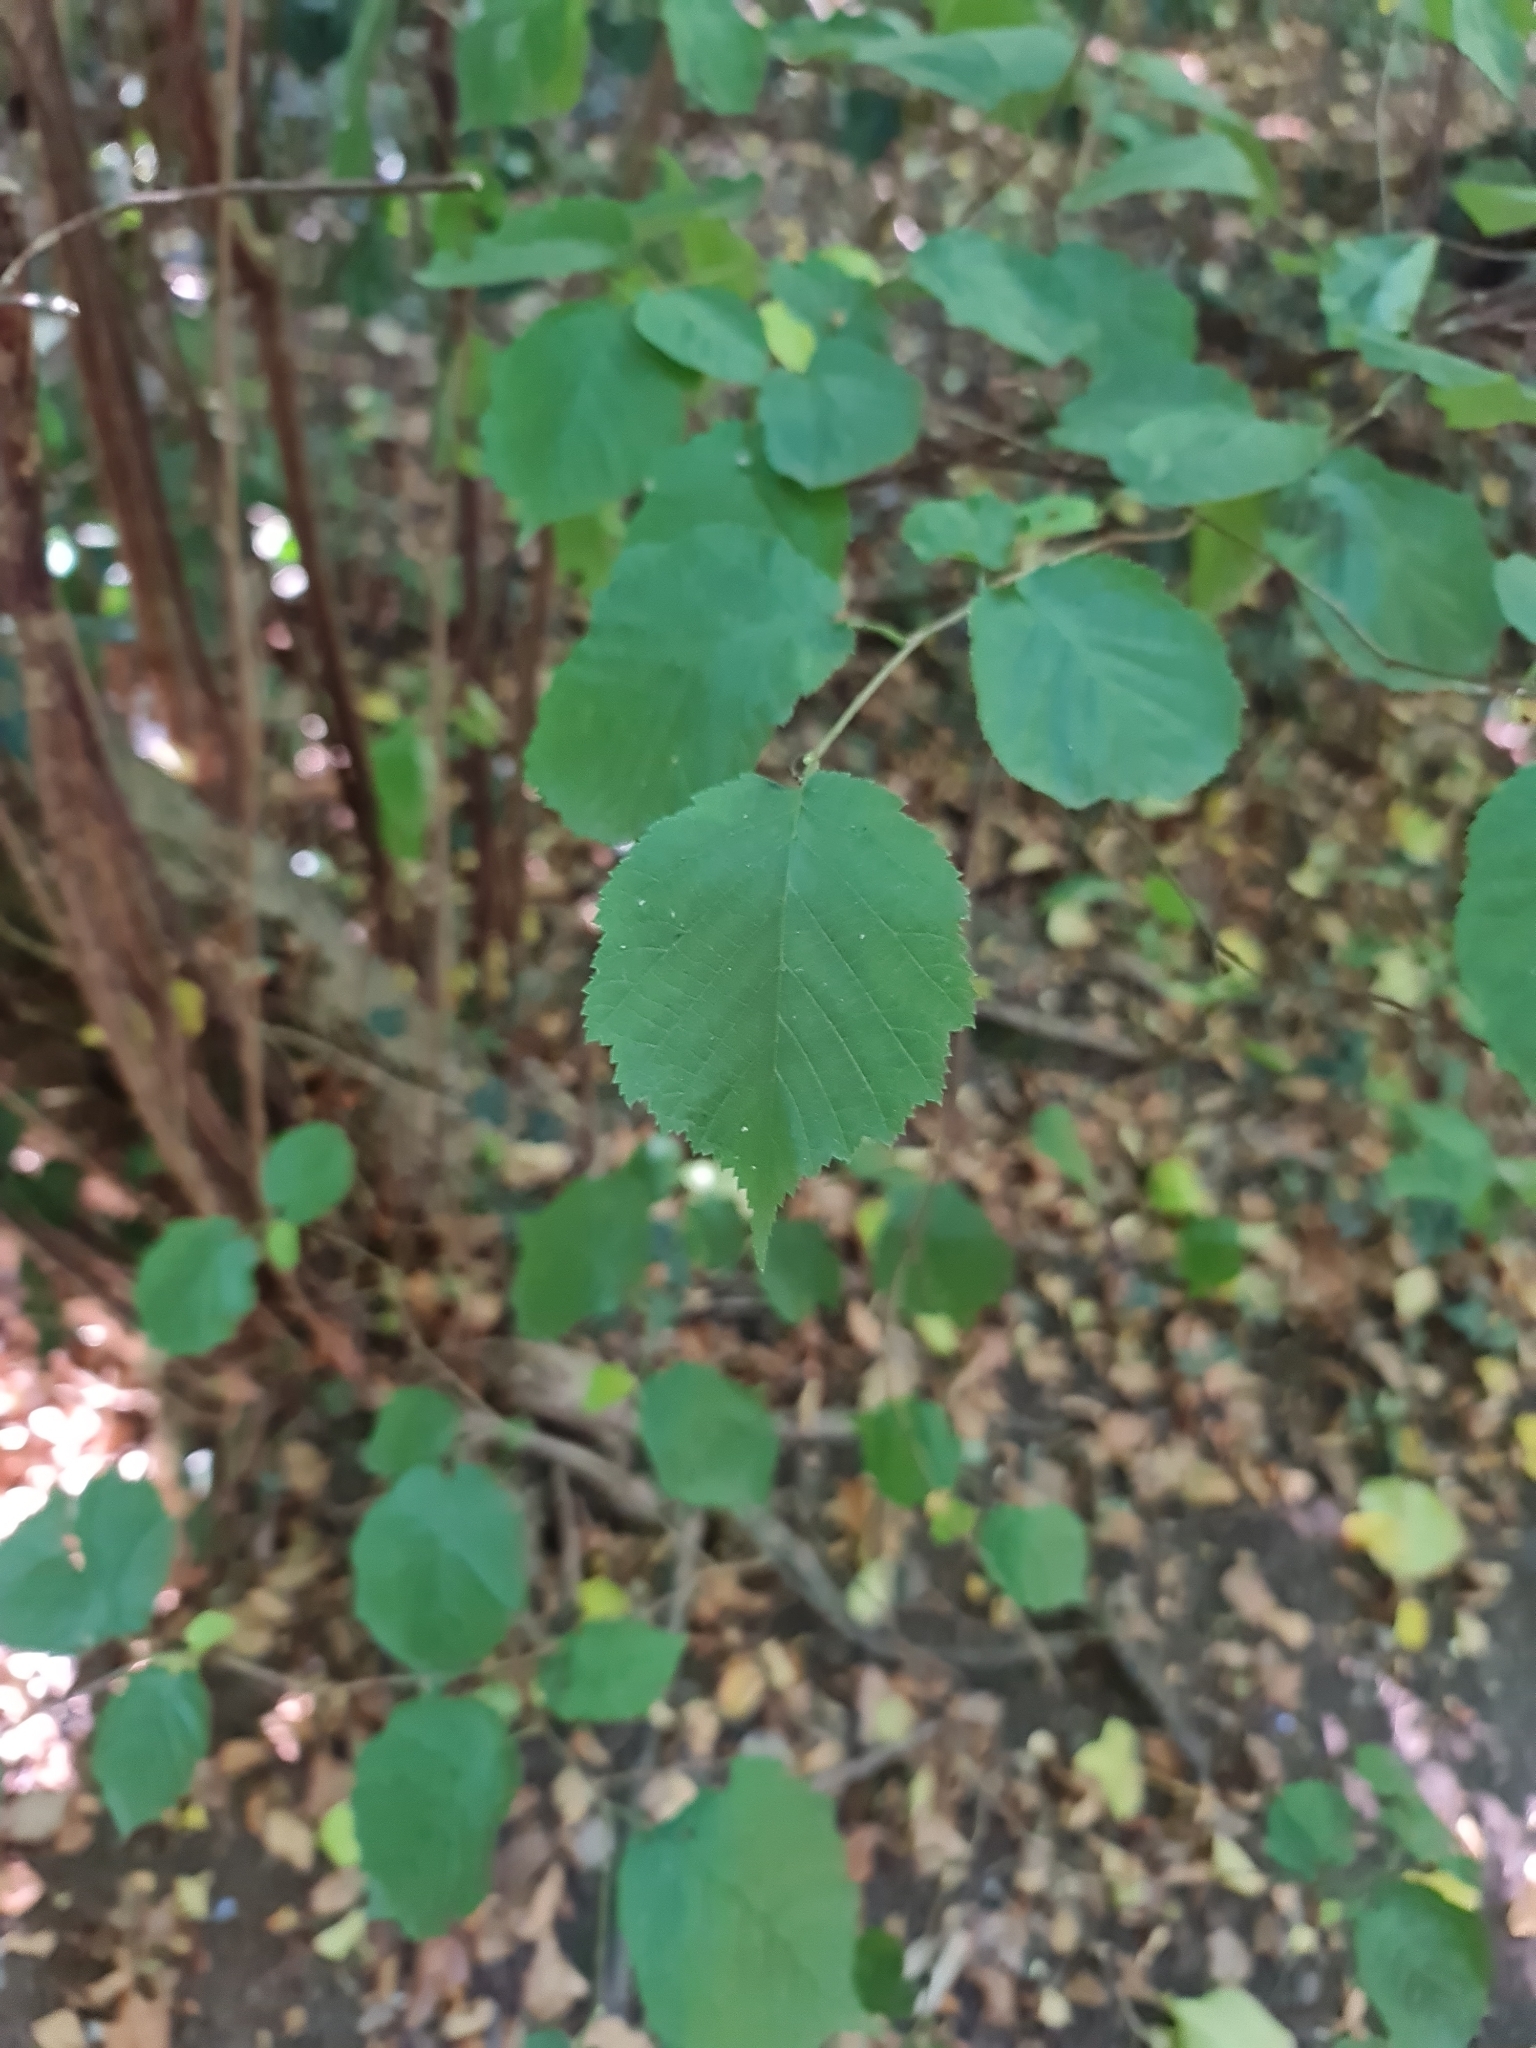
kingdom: Plantae
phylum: Tracheophyta
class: Magnoliopsida
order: Fagales
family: Betulaceae
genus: Corylus
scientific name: Corylus avellana
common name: European hazel
